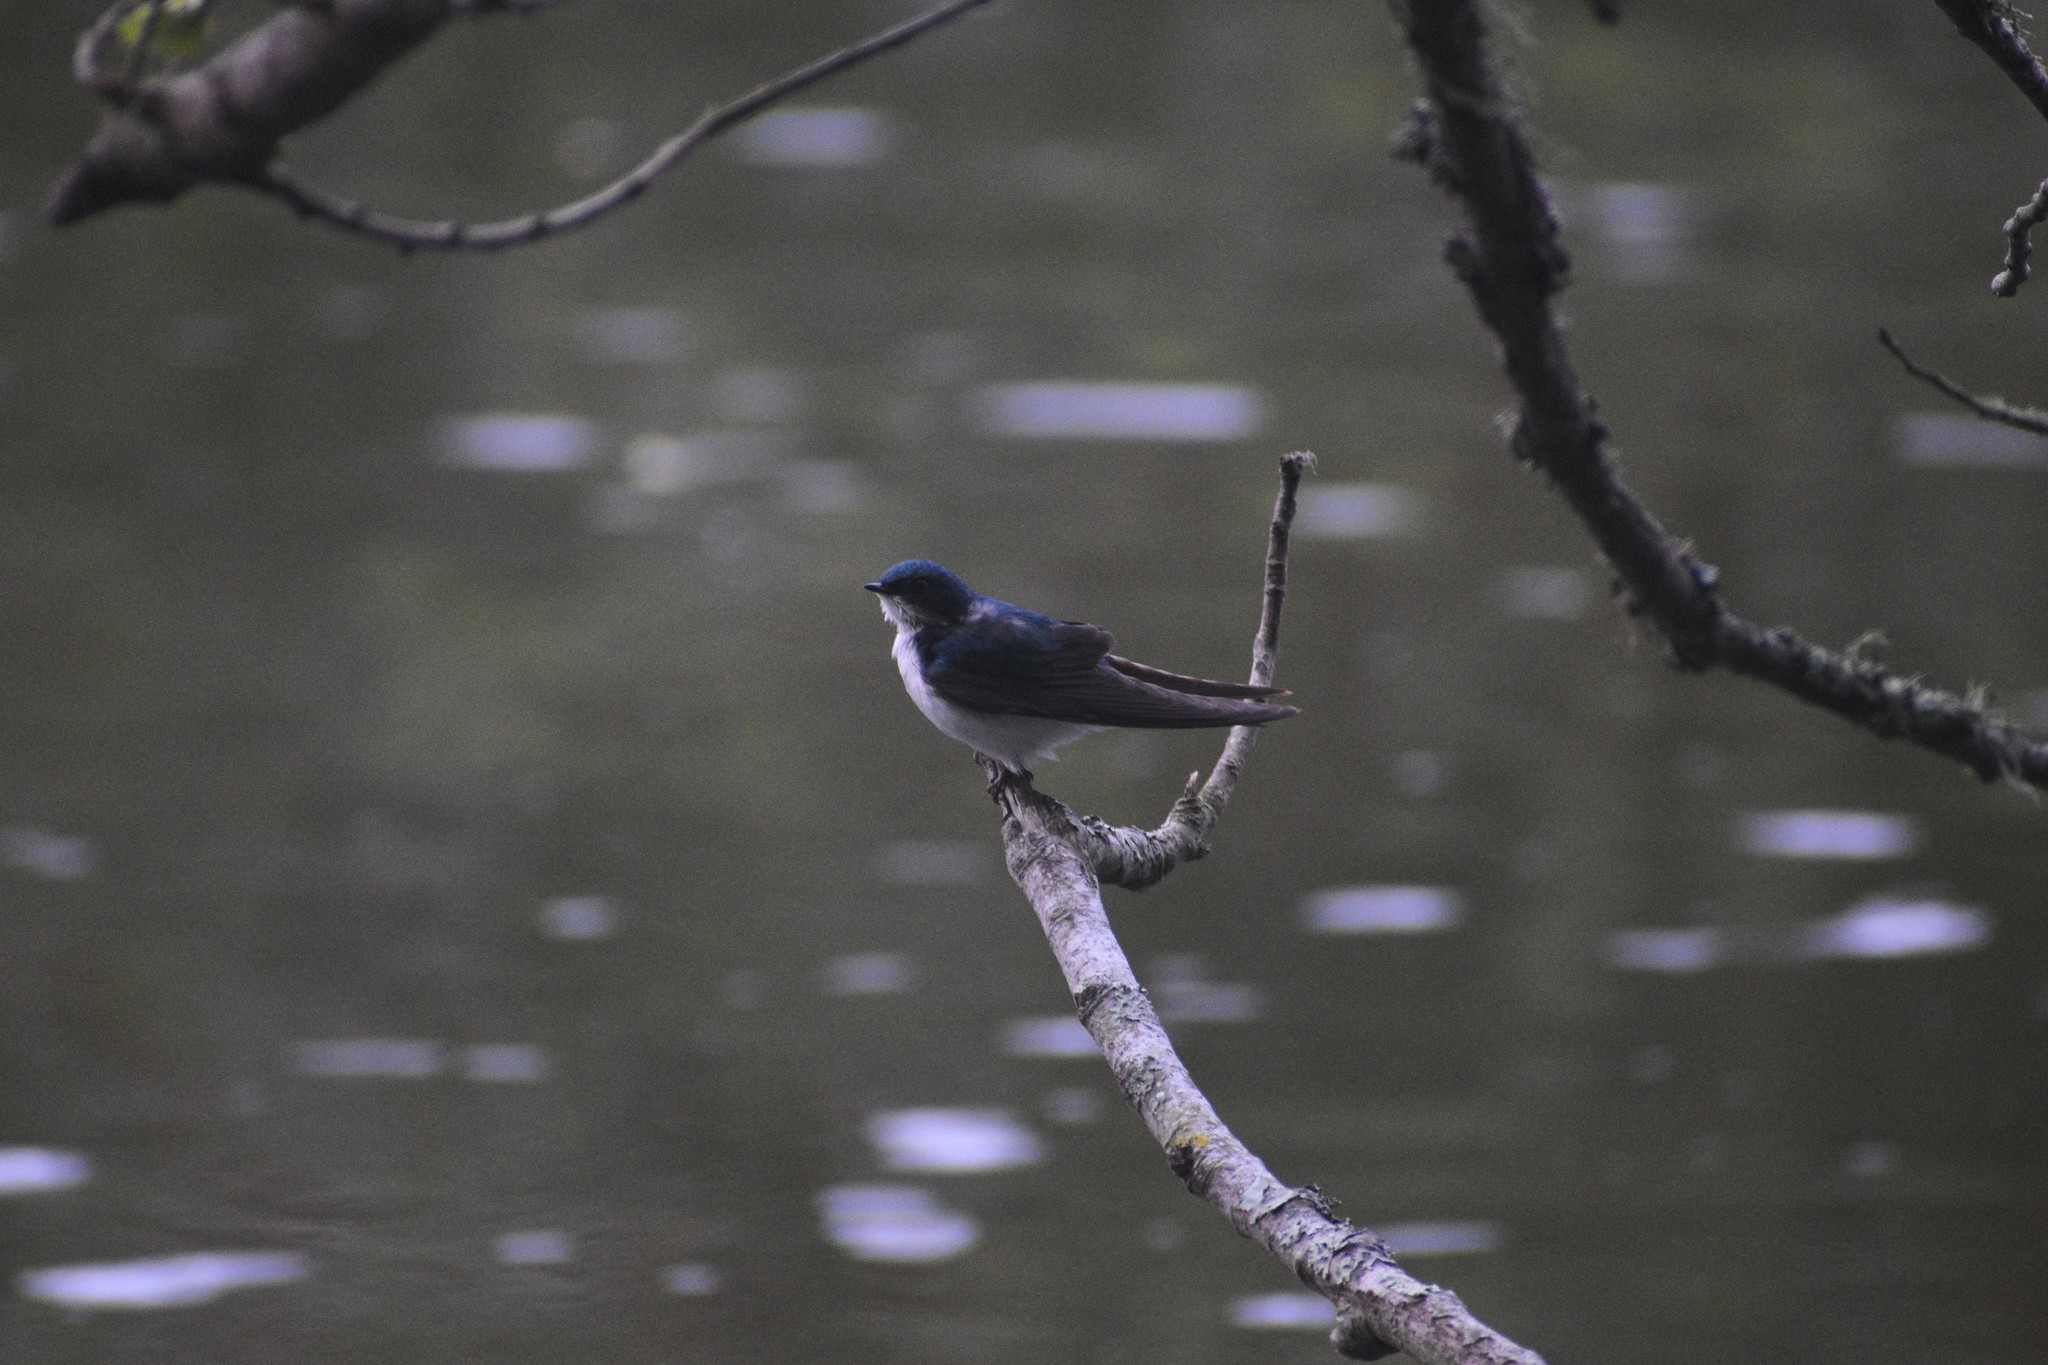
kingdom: Animalia
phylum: Chordata
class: Aves
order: Passeriformes
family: Hirundinidae
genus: Tachycineta
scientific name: Tachycineta bicolor
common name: Tree swallow
